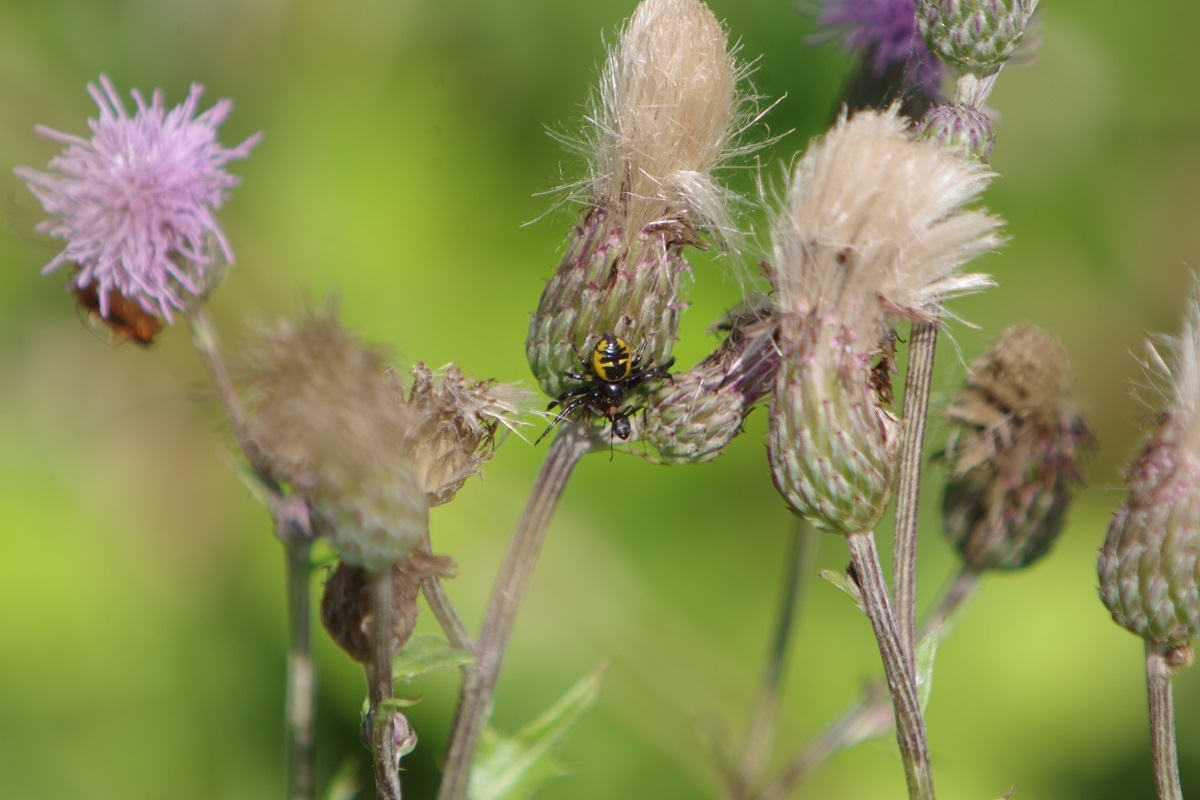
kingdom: Plantae
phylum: Tracheophyta
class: Magnoliopsida
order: Asterales
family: Asteraceae
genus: Cirsium
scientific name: Cirsium arvense
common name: Creeping thistle
